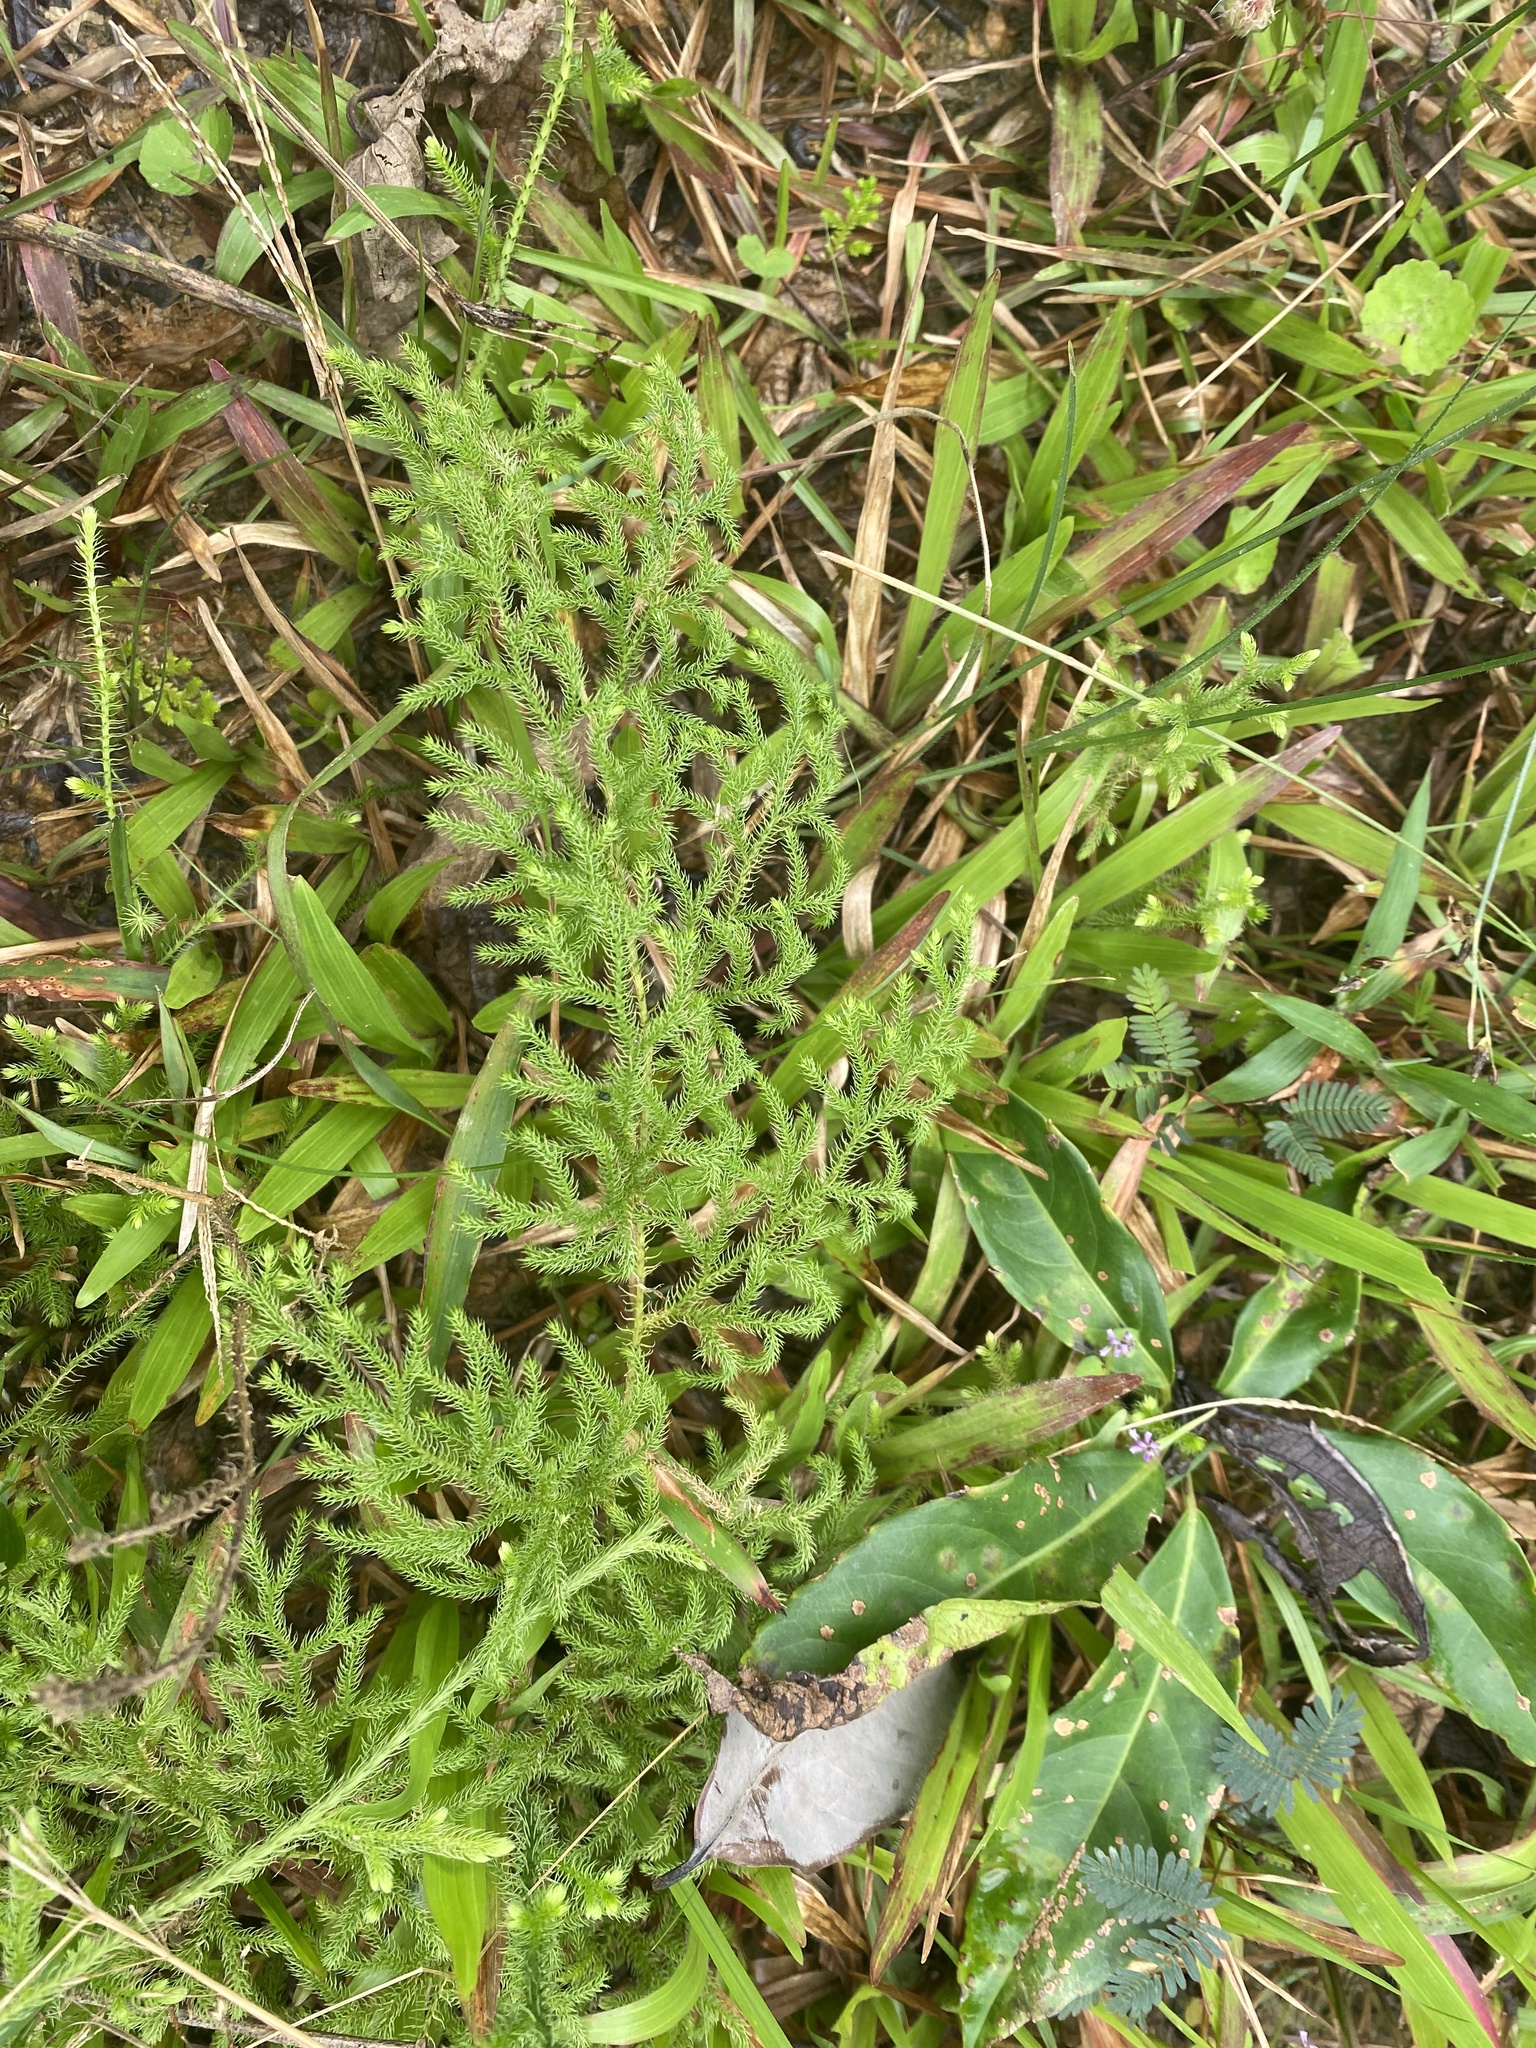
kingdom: Plantae
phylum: Tracheophyta
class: Lycopodiopsida
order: Lycopodiales
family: Lycopodiaceae
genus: Palhinhaea
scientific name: Palhinhaea cernua
